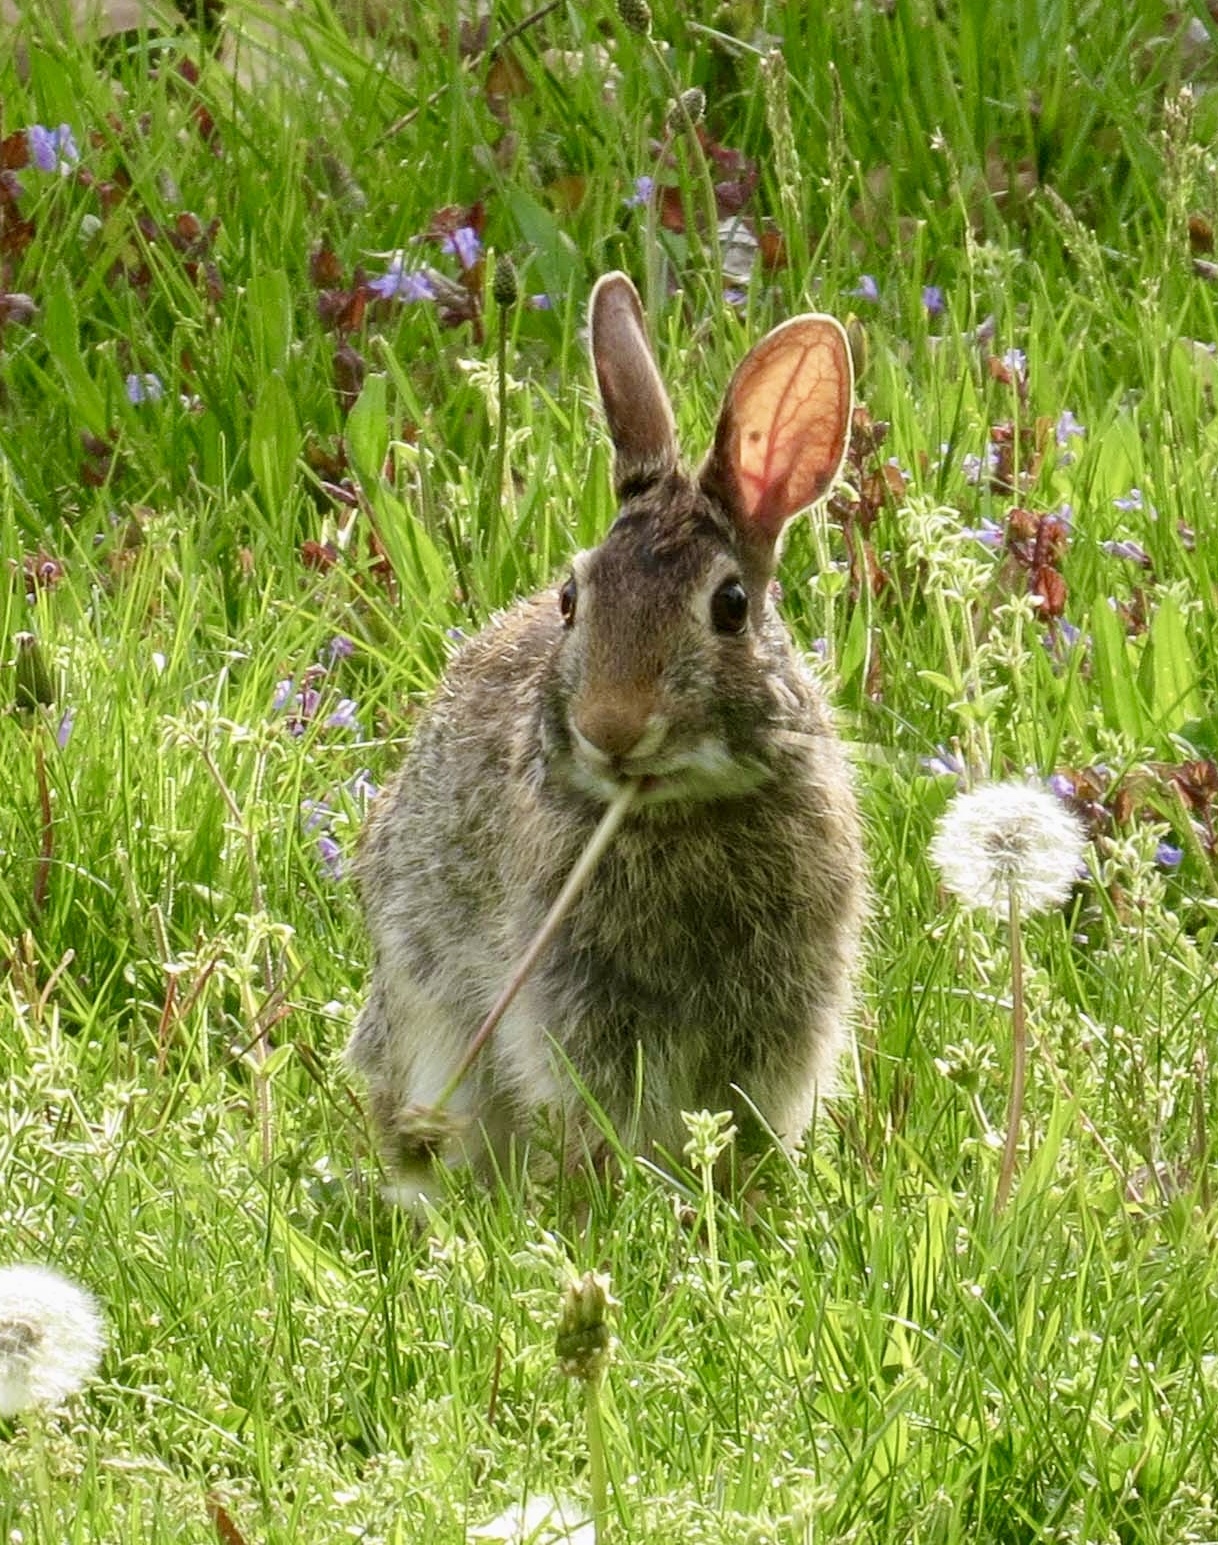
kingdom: Animalia
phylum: Chordata
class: Mammalia
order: Lagomorpha
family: Leporidae
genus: Sylvilagus
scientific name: Sylvilagus floridanus
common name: Eastern cottontail
